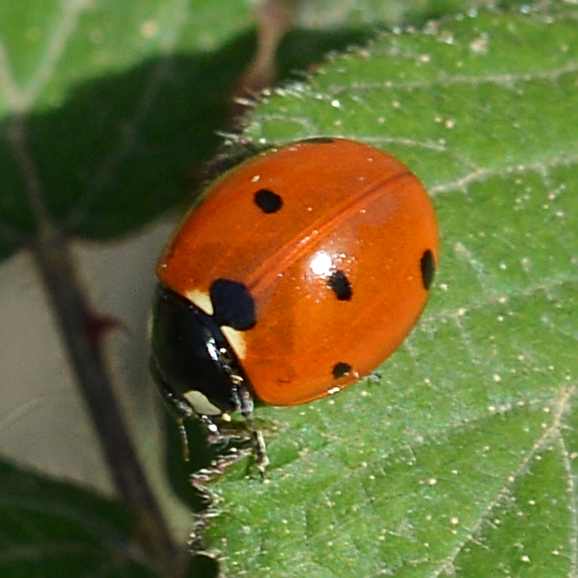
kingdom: Animalia
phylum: Arthropoda
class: Insecta
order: Coleoptera
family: Coccinellidae
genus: Coccinella
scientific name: Coccinella septempunctata
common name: Sevenspotted lady beetle
